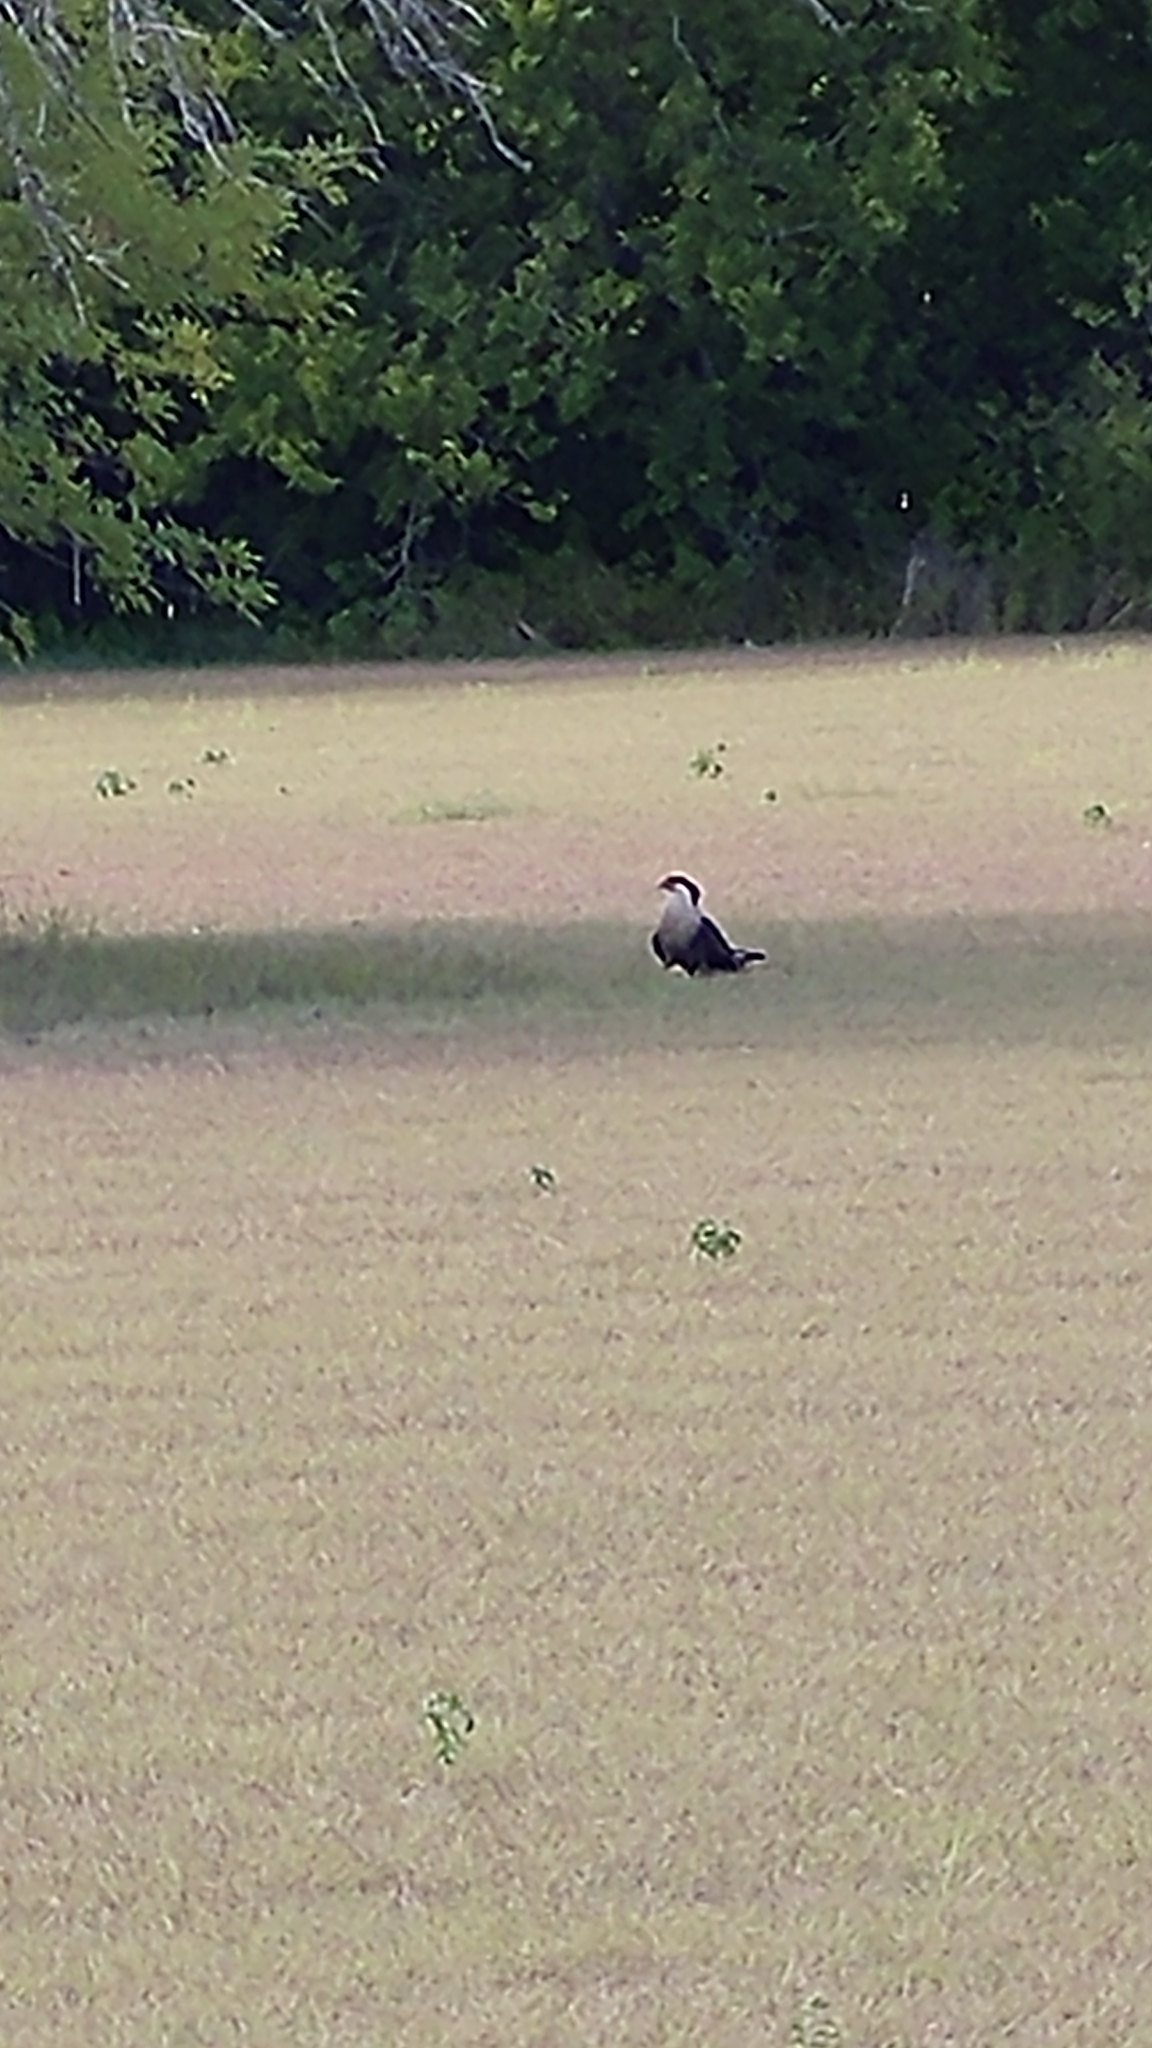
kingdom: Animalia
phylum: Chordata
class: Aves
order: Falconiformes
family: Falconidae
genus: Caracara
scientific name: Caracara plancus
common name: Southern caracara
